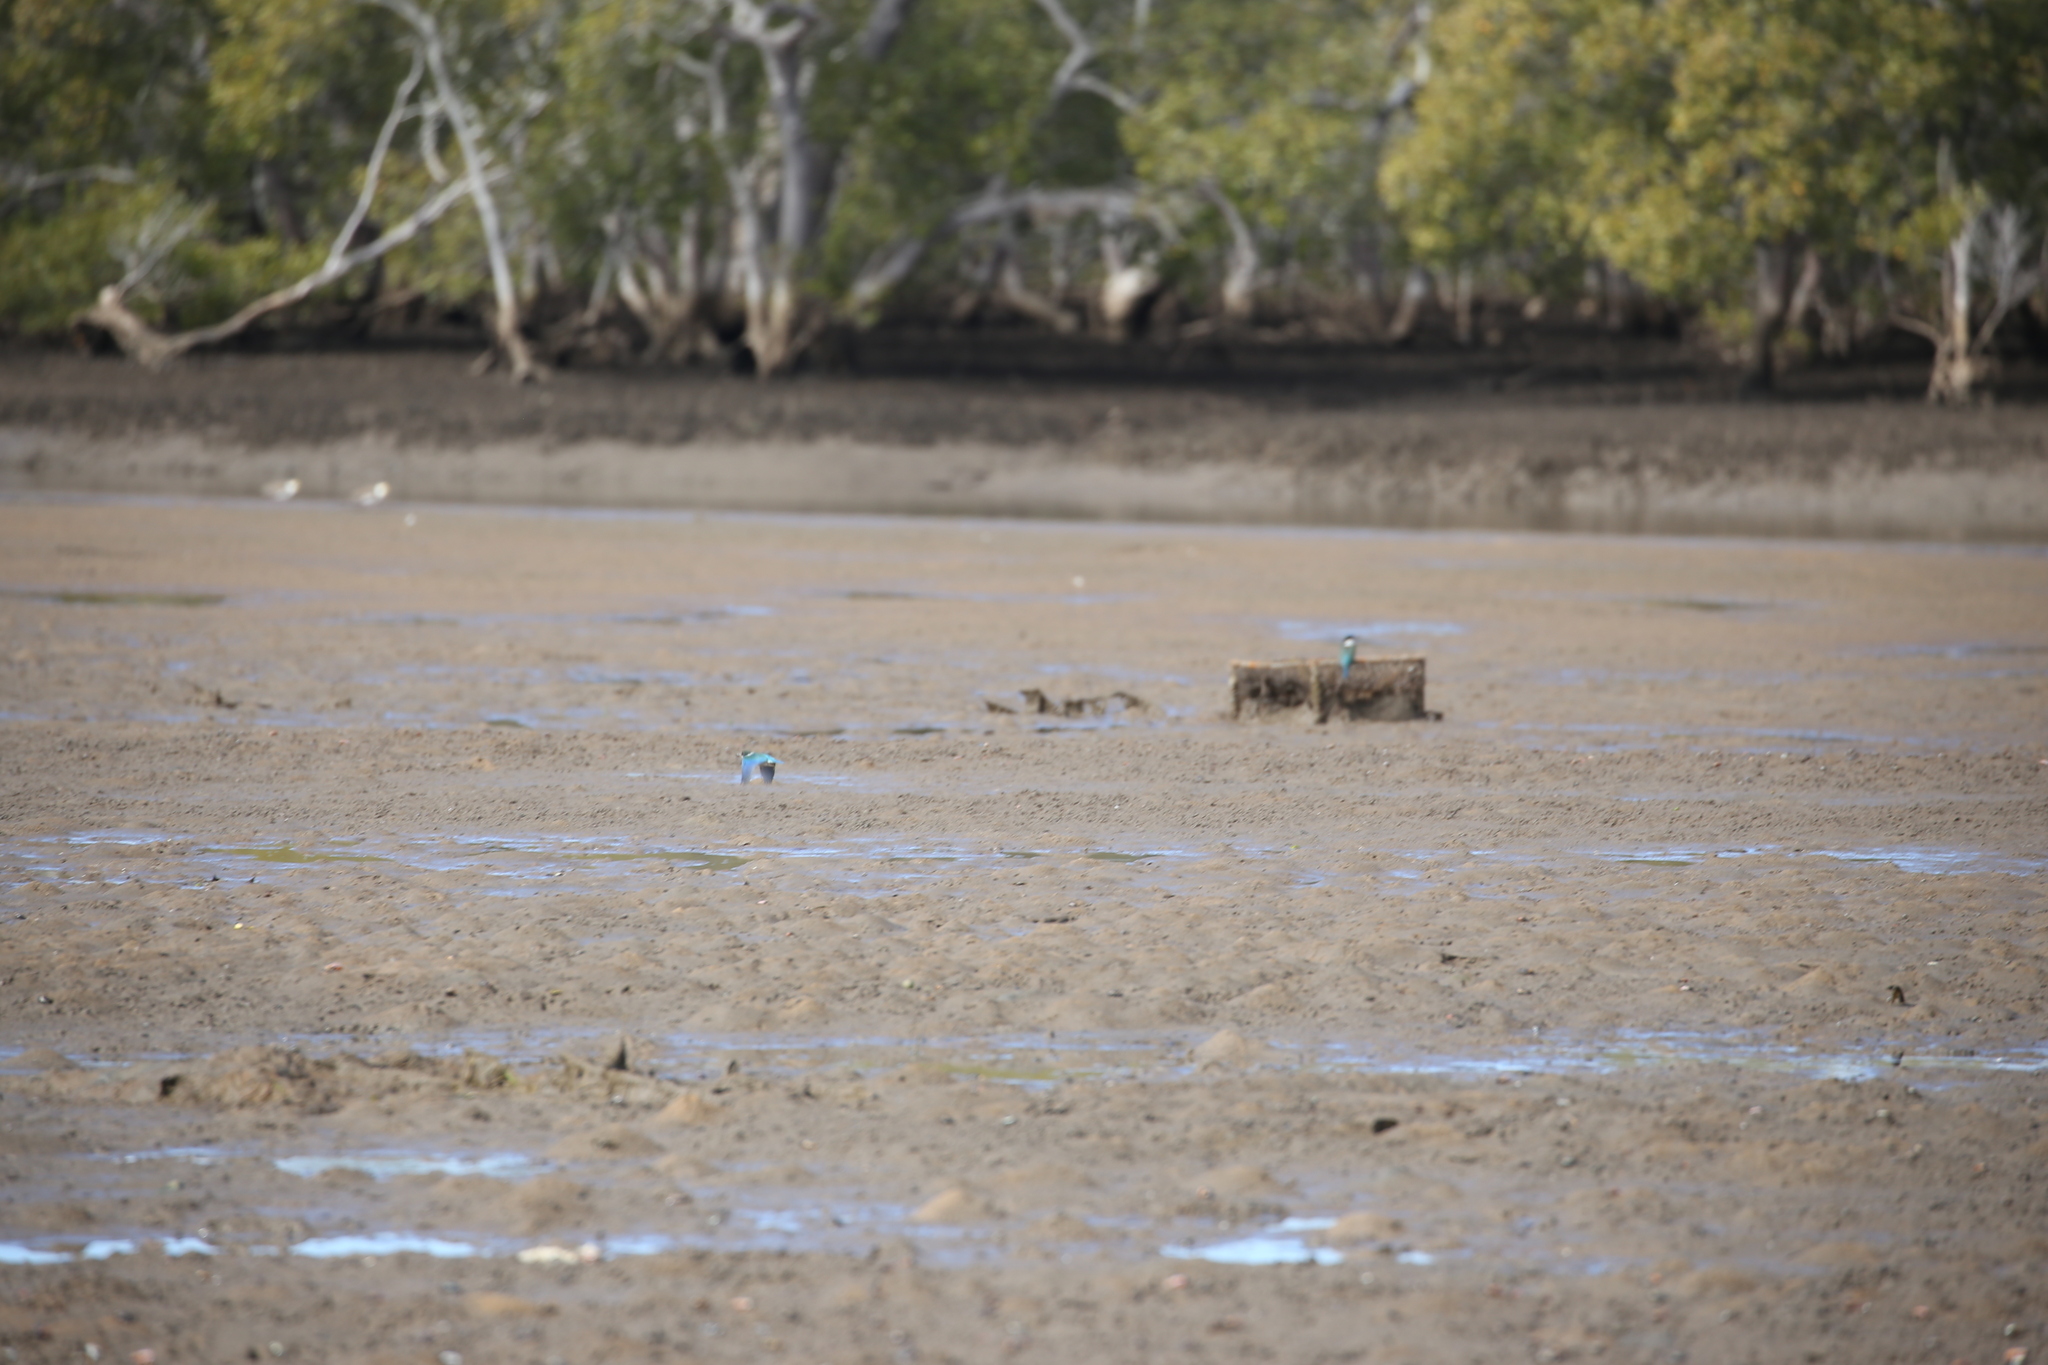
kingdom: Animalia
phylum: Chordata
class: Aves
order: Coraciiformes
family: Alcedinidae
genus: Todiramphus
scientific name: Todiramphus sanctus
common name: Sacred kingfisher
